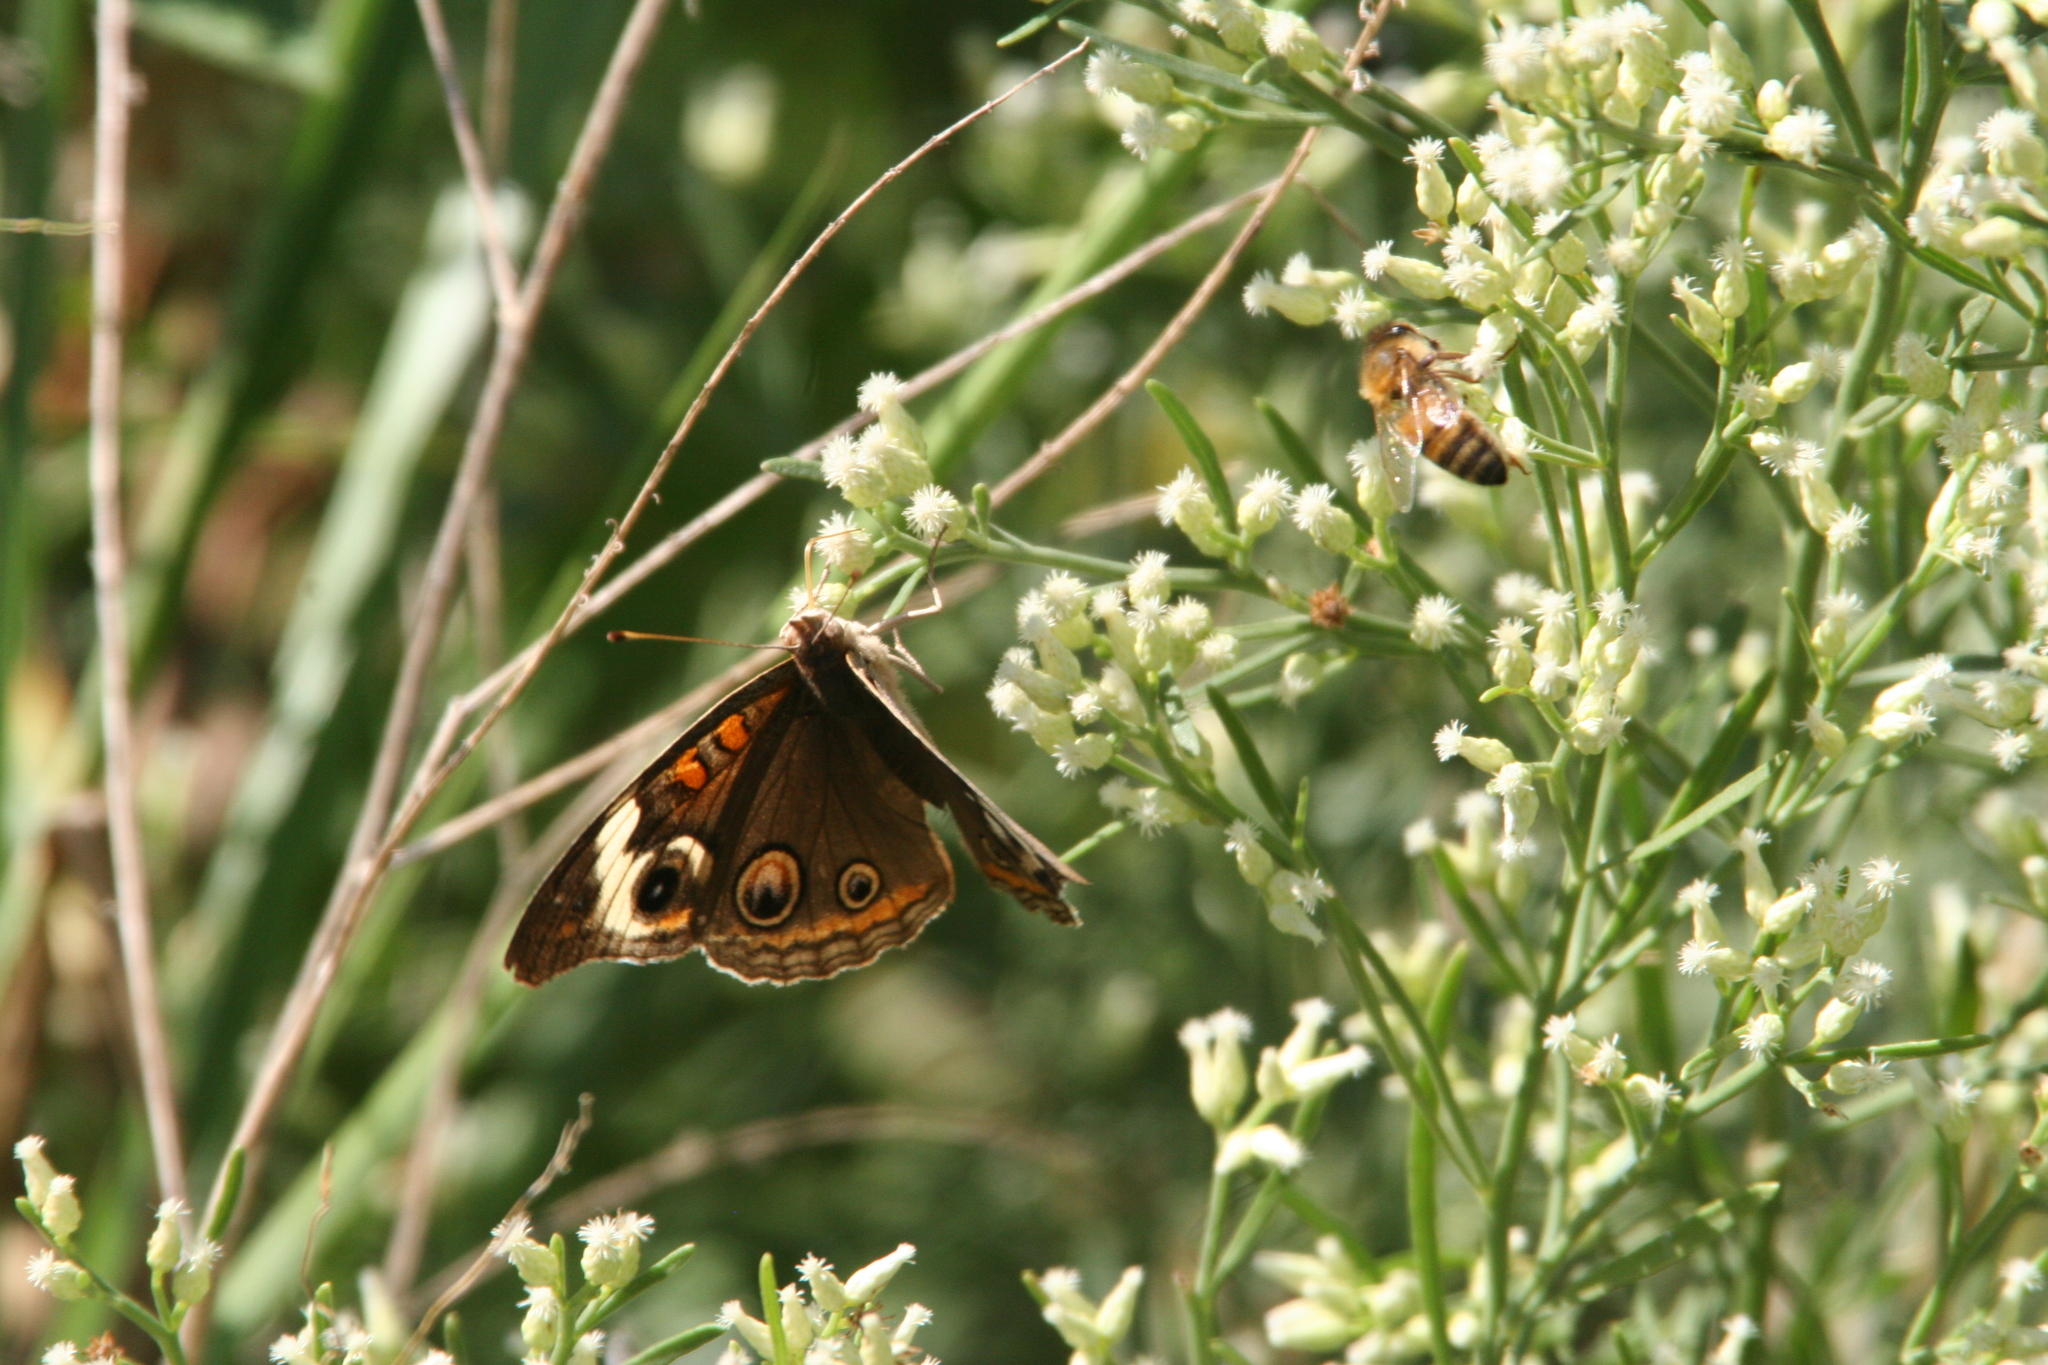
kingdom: Animalia
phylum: Arthropoda
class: Insecta
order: Lepidoptera
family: Nymphalidae
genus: Junonia
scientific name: Junonia coenia
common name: Common buckeye
